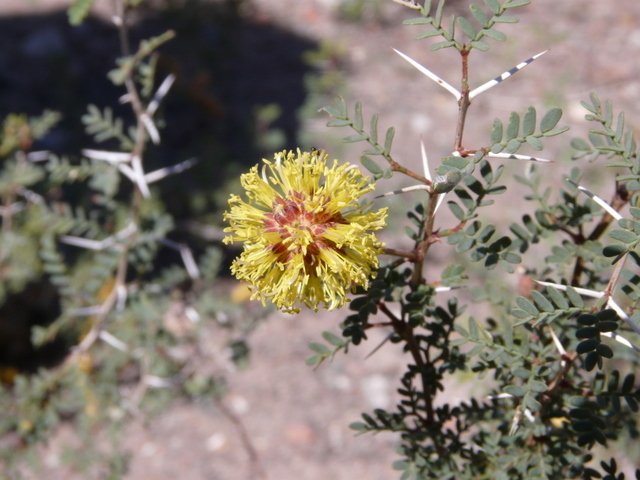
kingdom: Plantae
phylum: Tracheophyta
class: Magnoliopsida
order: Fabales
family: Fabaceae
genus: Prosopis
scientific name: Prosopis strombulifera
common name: Creeping mesquite
